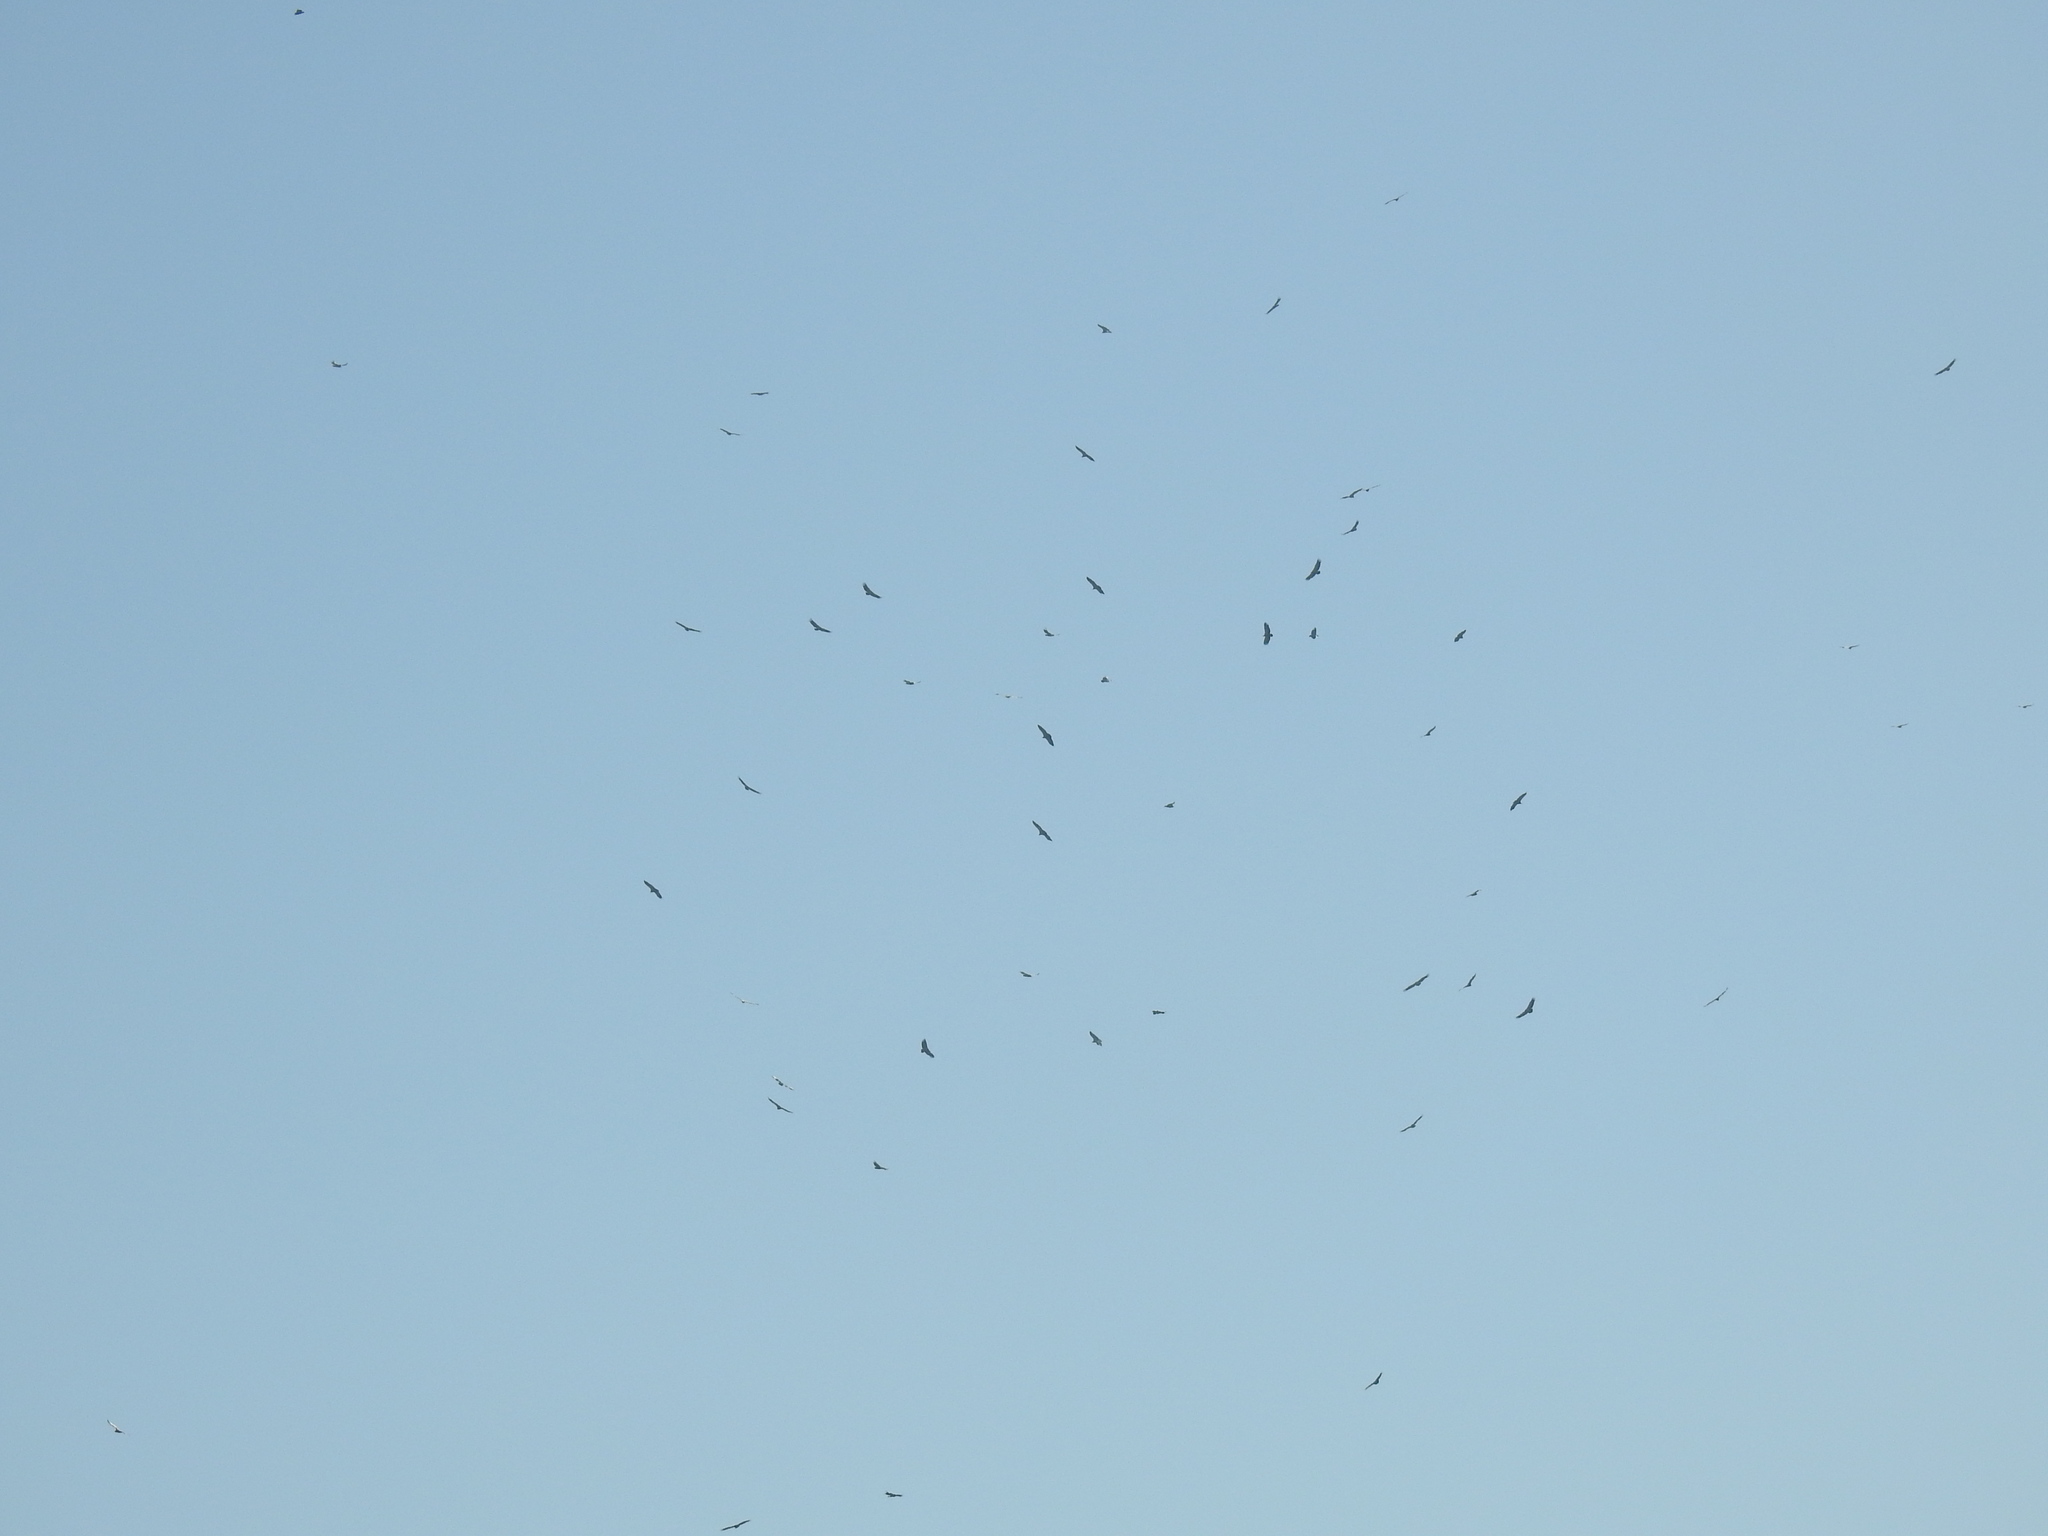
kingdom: Animalia
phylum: Chordata
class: Aves
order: Accipitriformes
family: Accipitridae
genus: Gyps
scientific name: Gyps coprotheres
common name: Cape vulture
